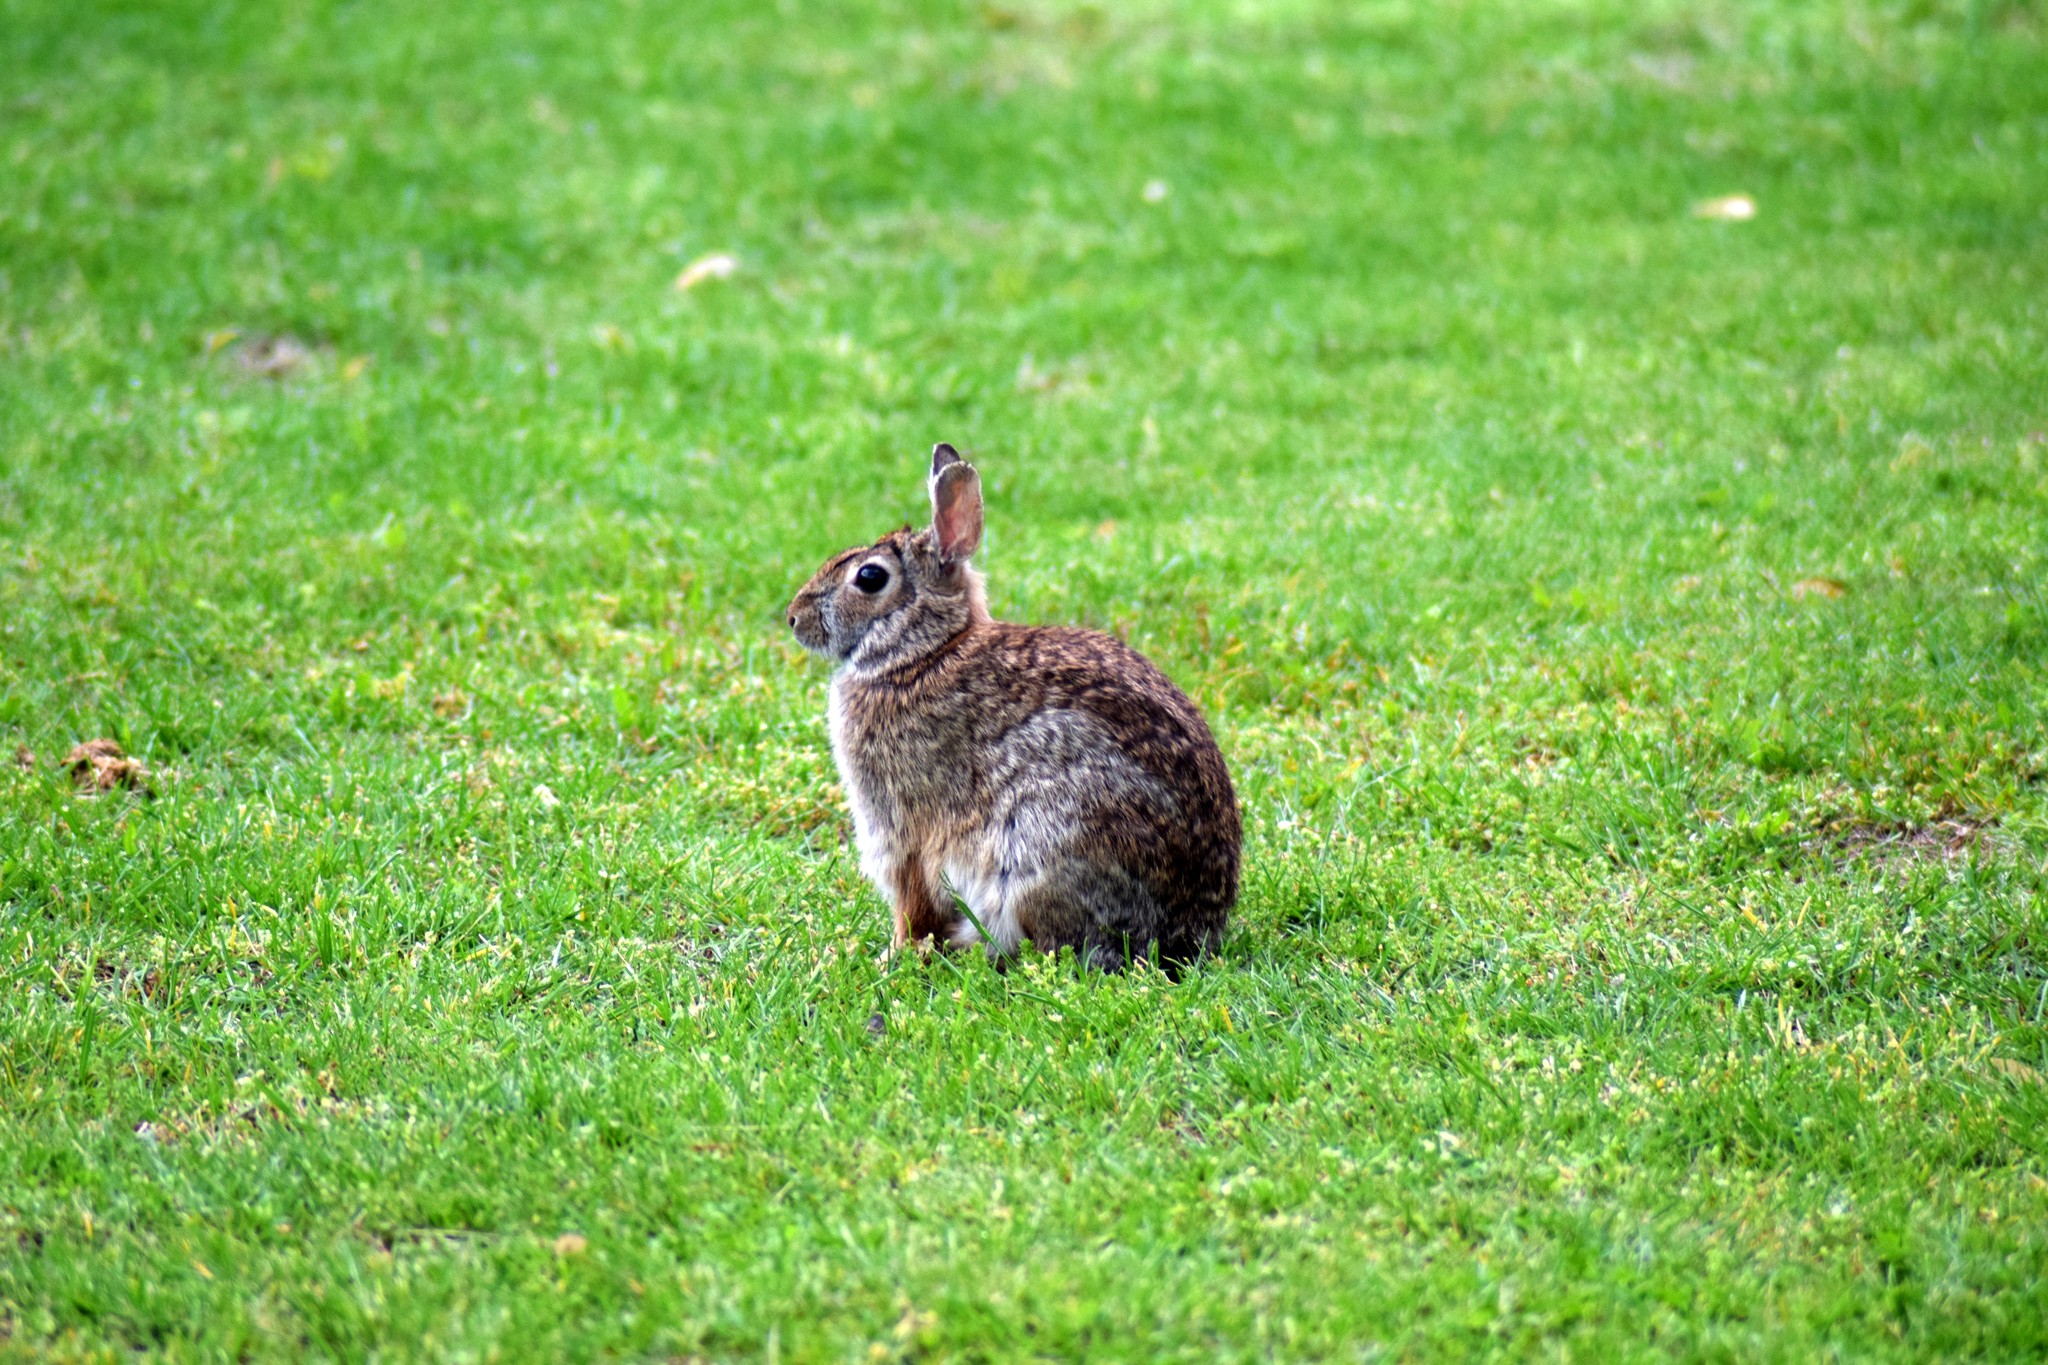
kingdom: Animalia
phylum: Chordata
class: Mammalia
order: Lagomorpha
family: Leporidae
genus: Sylvilagus
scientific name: Sylvilagus floridanus
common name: Eastern cottontail
